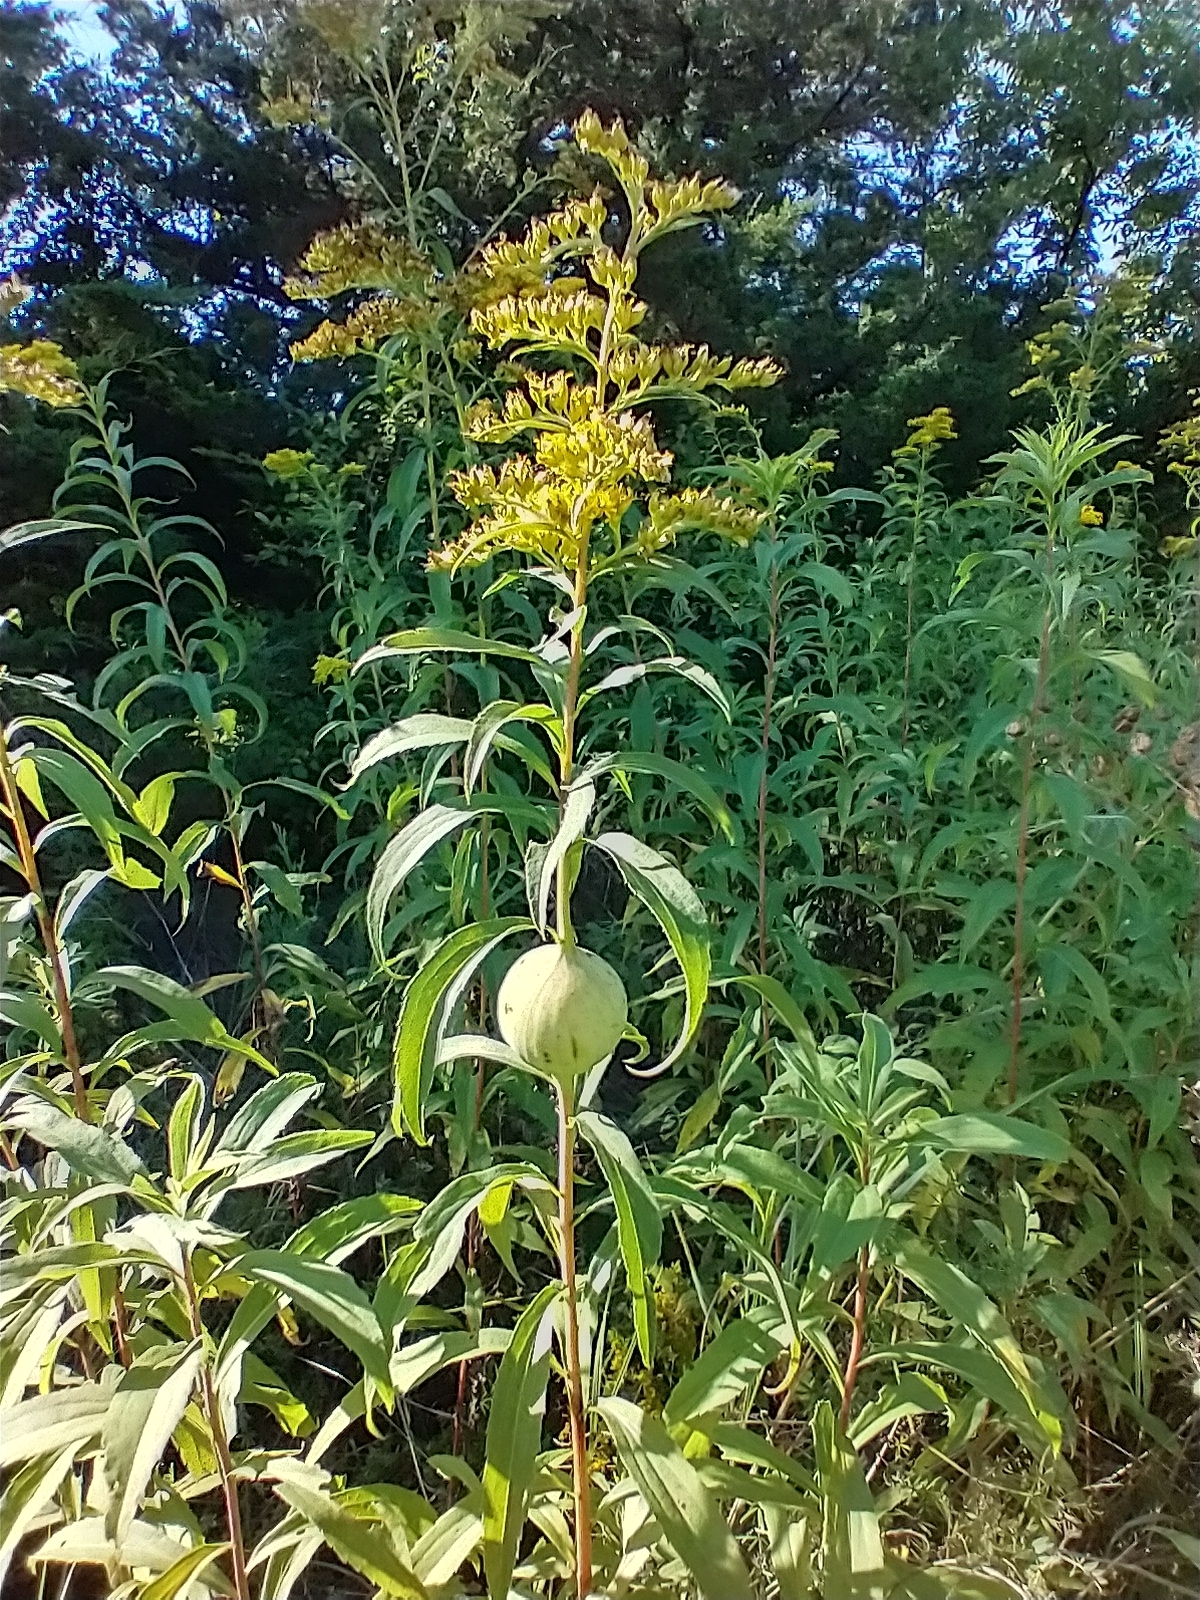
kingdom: Animalia
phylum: Arthropoda
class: Insecta
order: Diptera
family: Tephritidae
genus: Eurosta
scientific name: Eurosta solidaginis
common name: Goldenrod gall fly
